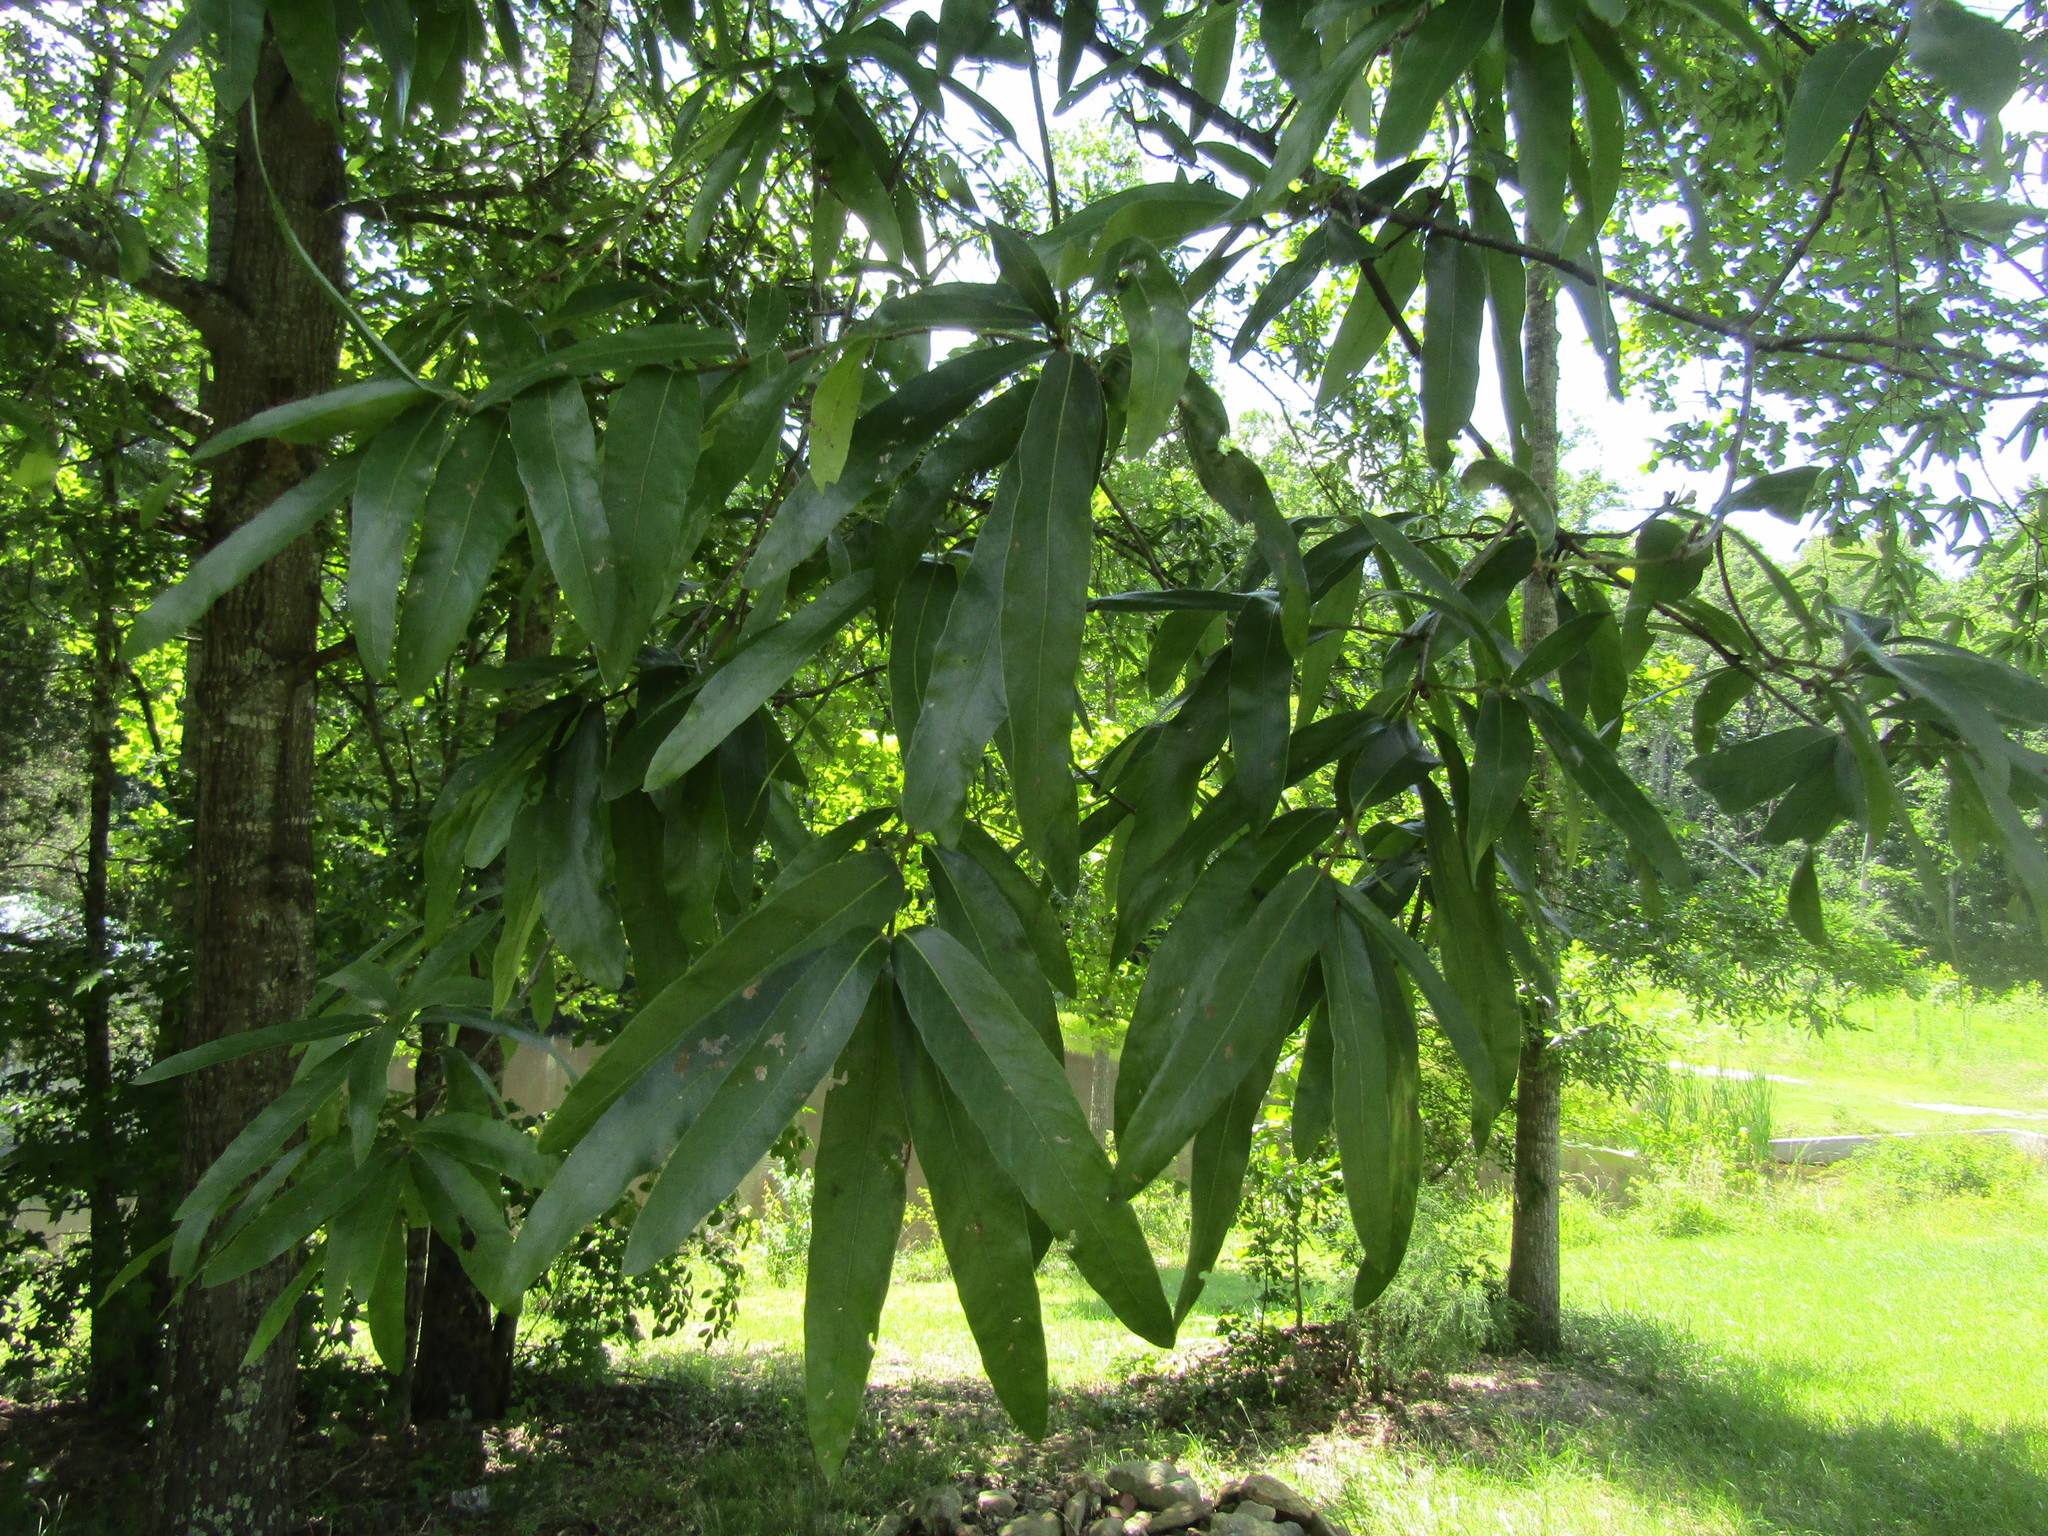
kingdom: Plantae
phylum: Tracheophyta
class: Magnoliopsida
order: Fagales
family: Fagaceae
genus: Quercus
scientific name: Quercus phellos
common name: Willow oak
